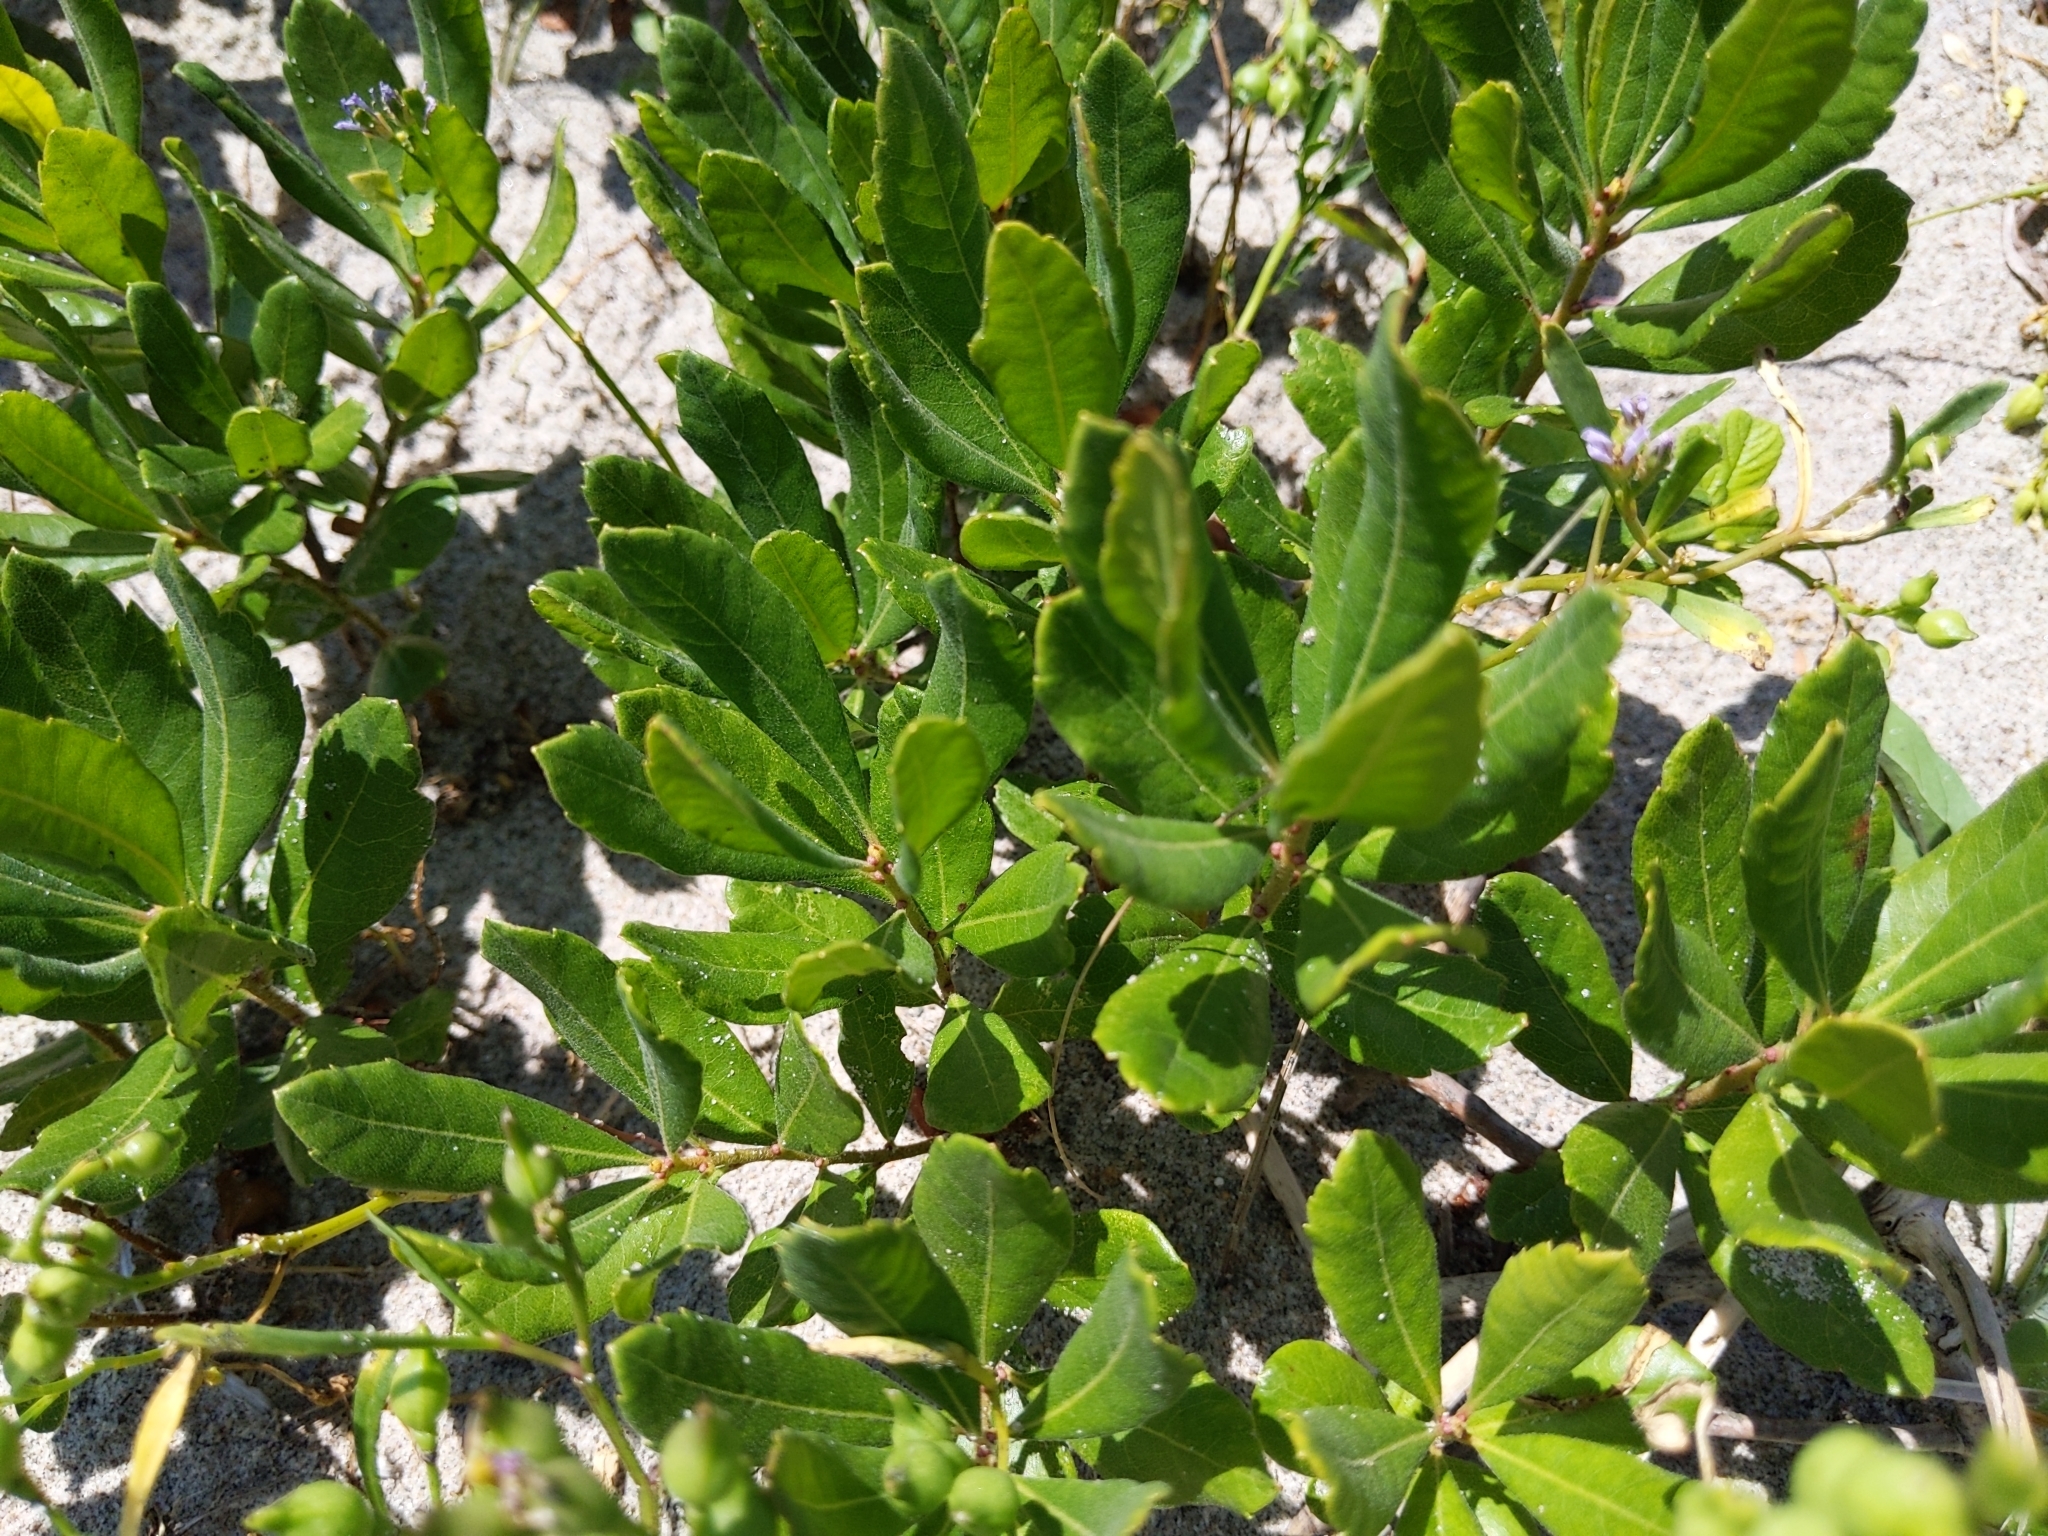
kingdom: Plantae
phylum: Tracheophyta
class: Magnoliopsida
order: Fagales
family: Myricaceae
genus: Morella
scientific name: Morella pensylvanica
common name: Northern bayberry
